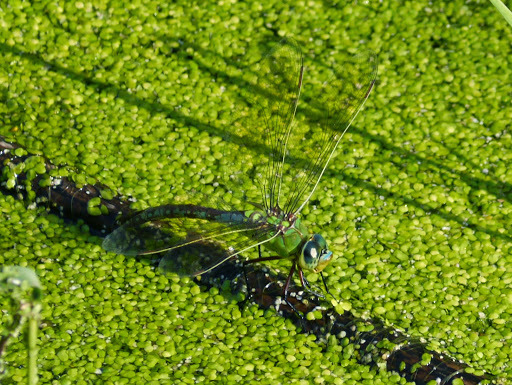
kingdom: Animalia
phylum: Arthropoda
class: Insecta
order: Odonata
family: Aeshnidae
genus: Anax
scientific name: Anax imperator
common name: Emperor dragonfly
